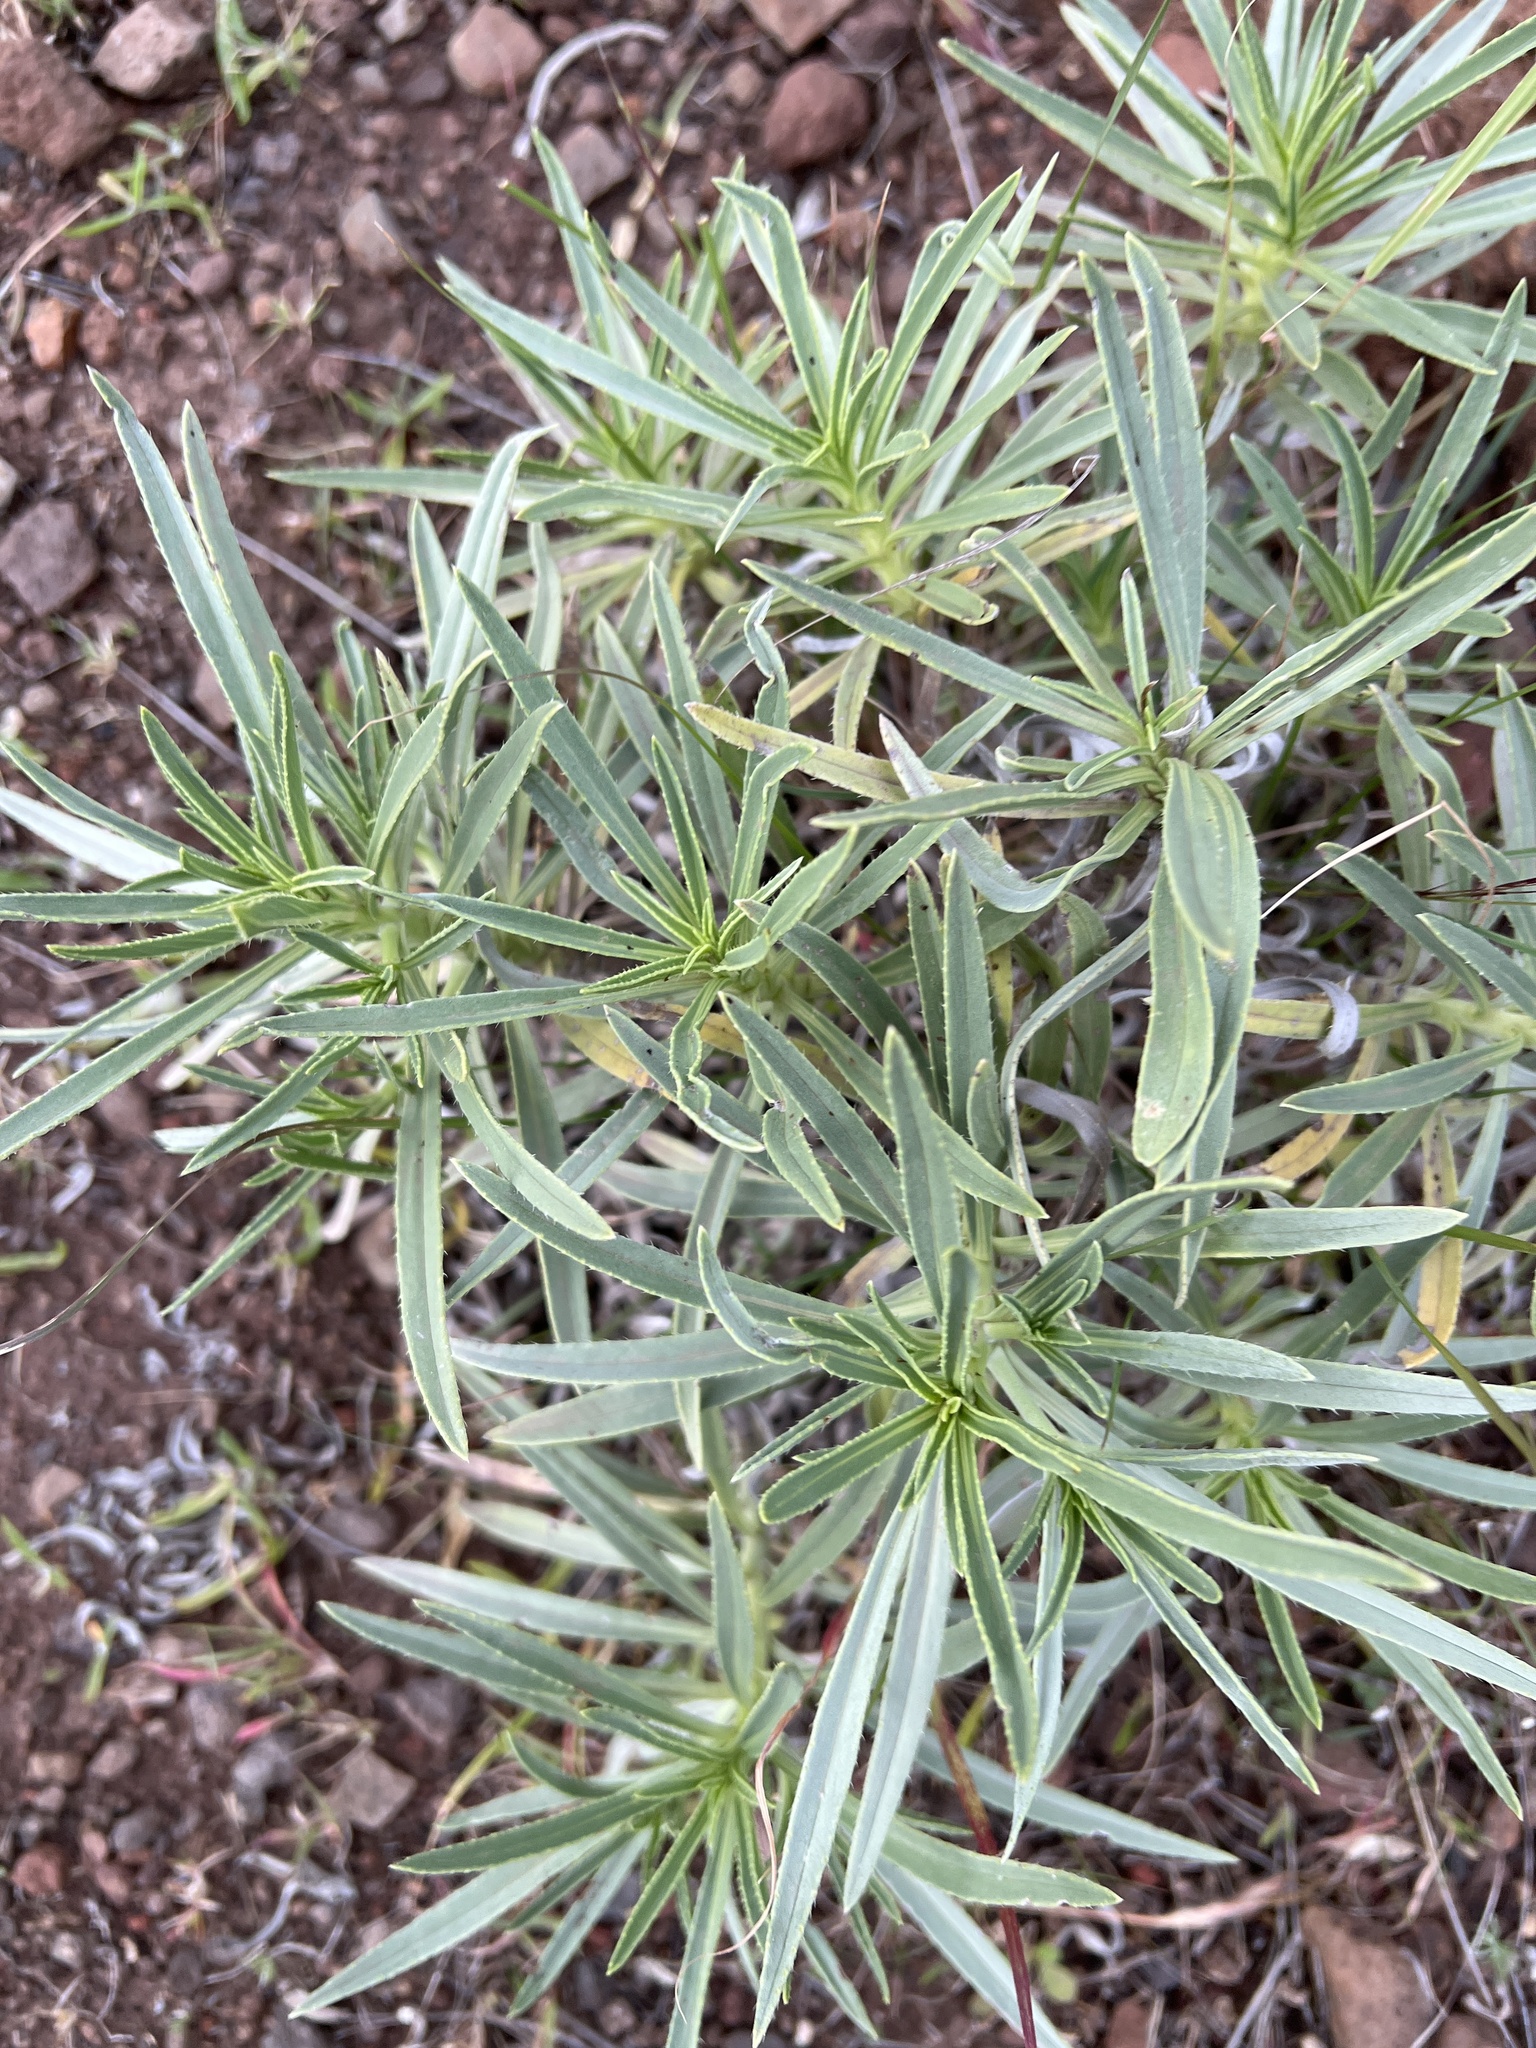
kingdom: Plantae
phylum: Tracheophyta
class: Magnoliopsida
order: Boraginales
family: Boraginaceae
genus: Echium
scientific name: Echium aculeatum
